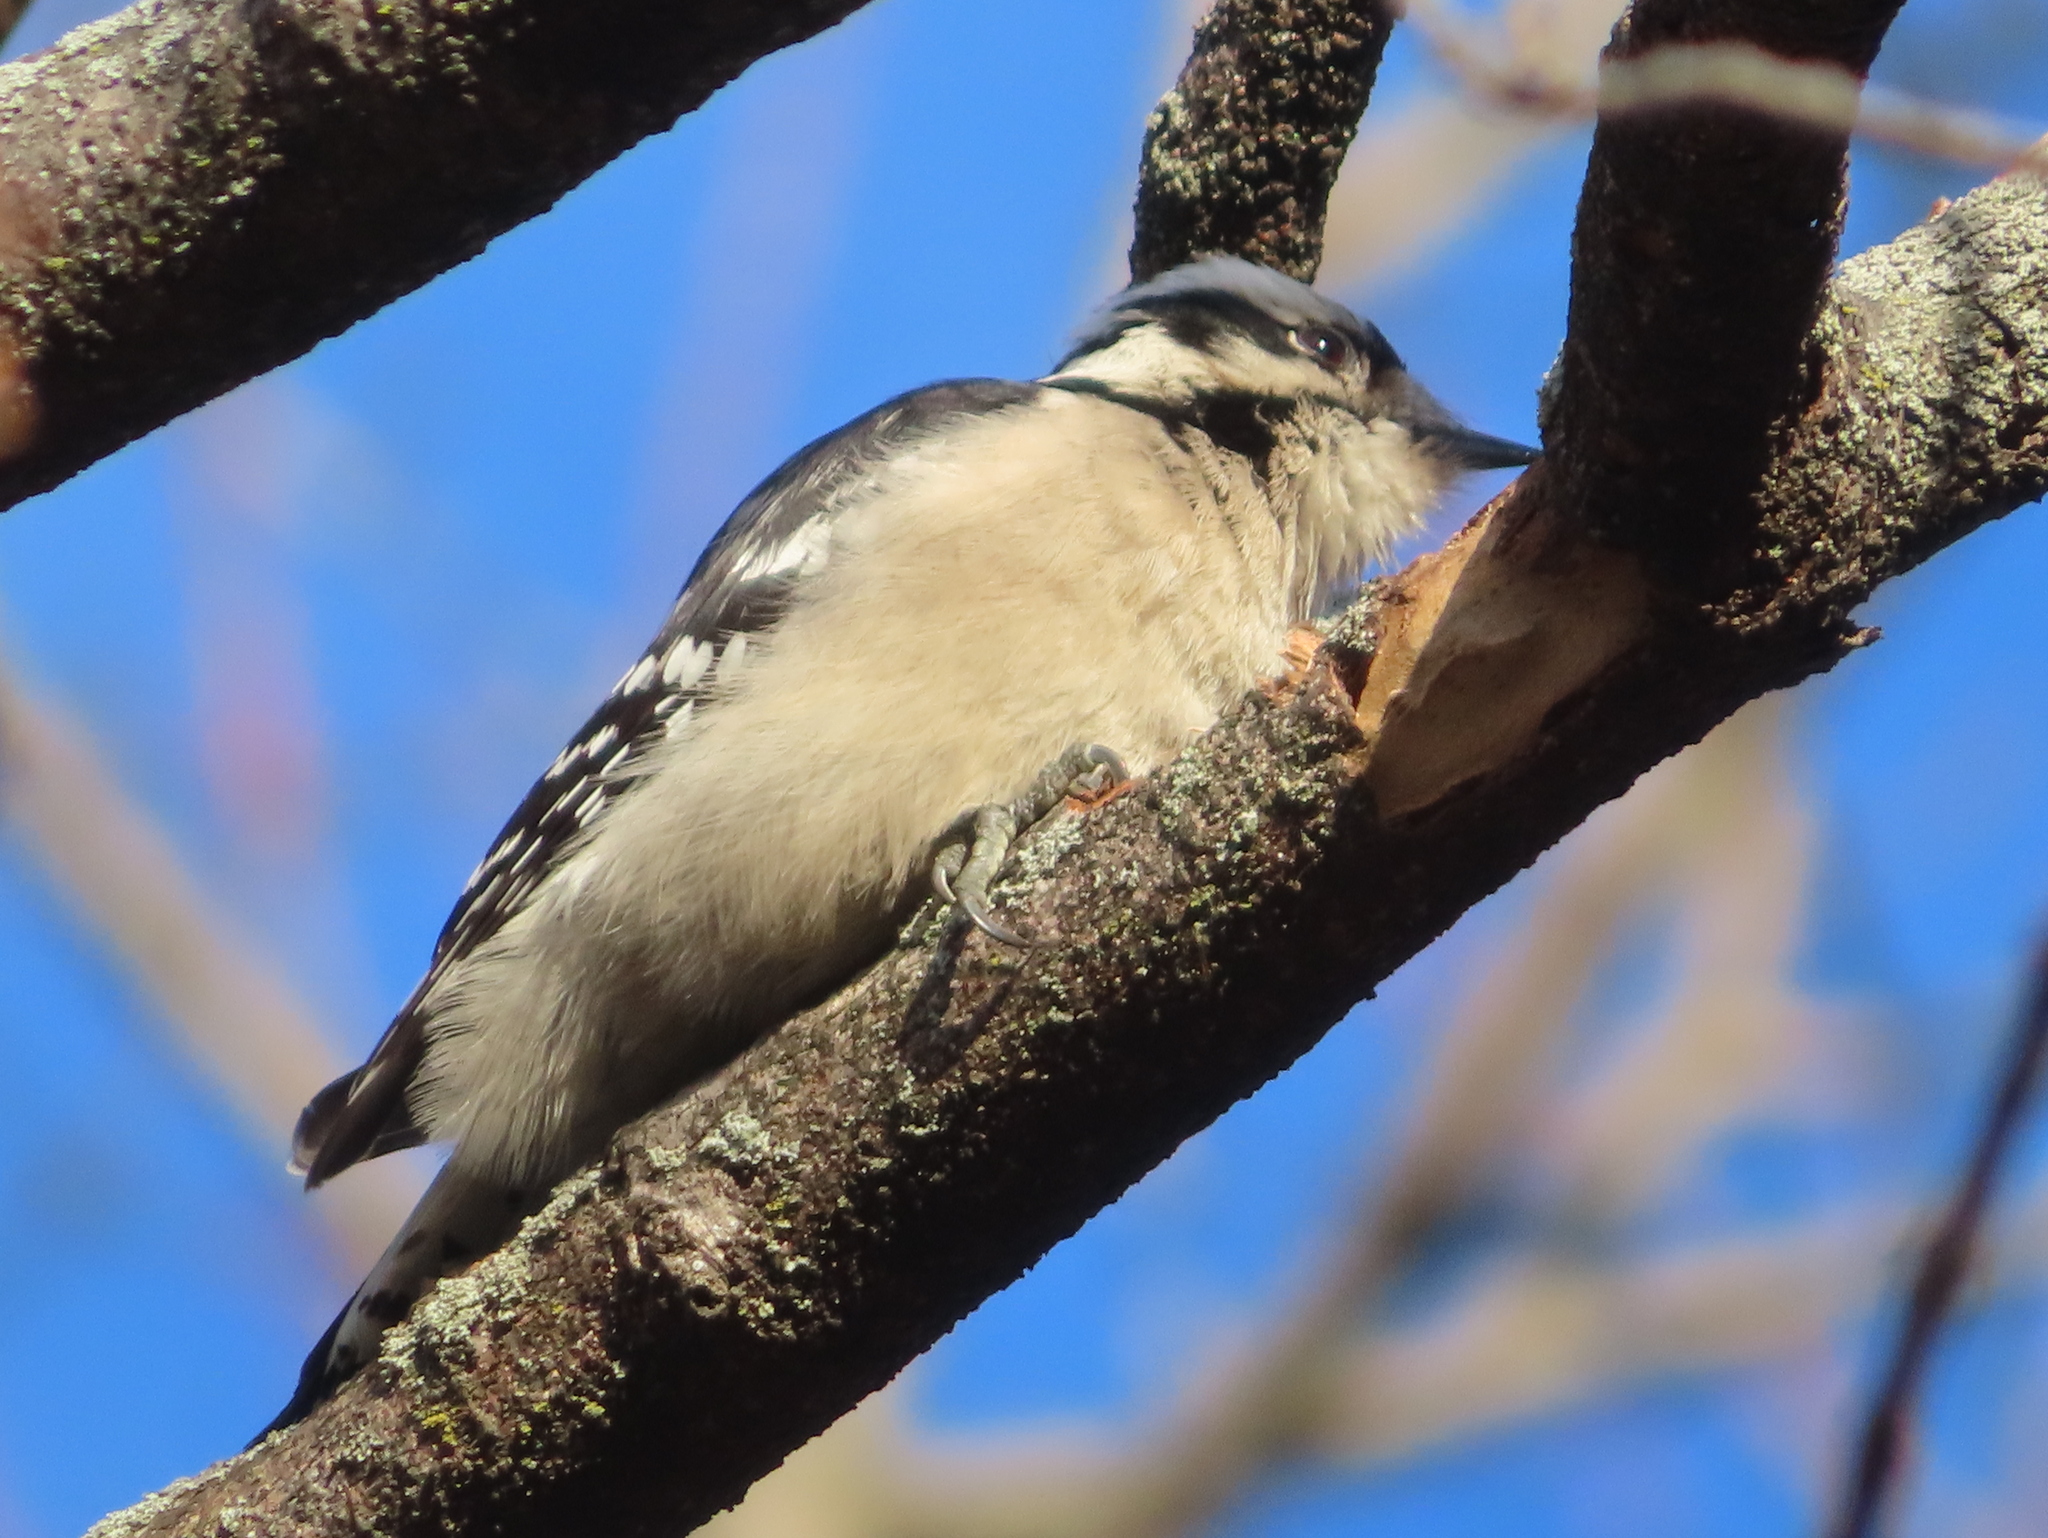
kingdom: Animalia
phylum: Chordata
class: Aves
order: Piciformes
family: Picidae
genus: Dryobates
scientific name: Dryobates pubescens
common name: Downy woodpecker
